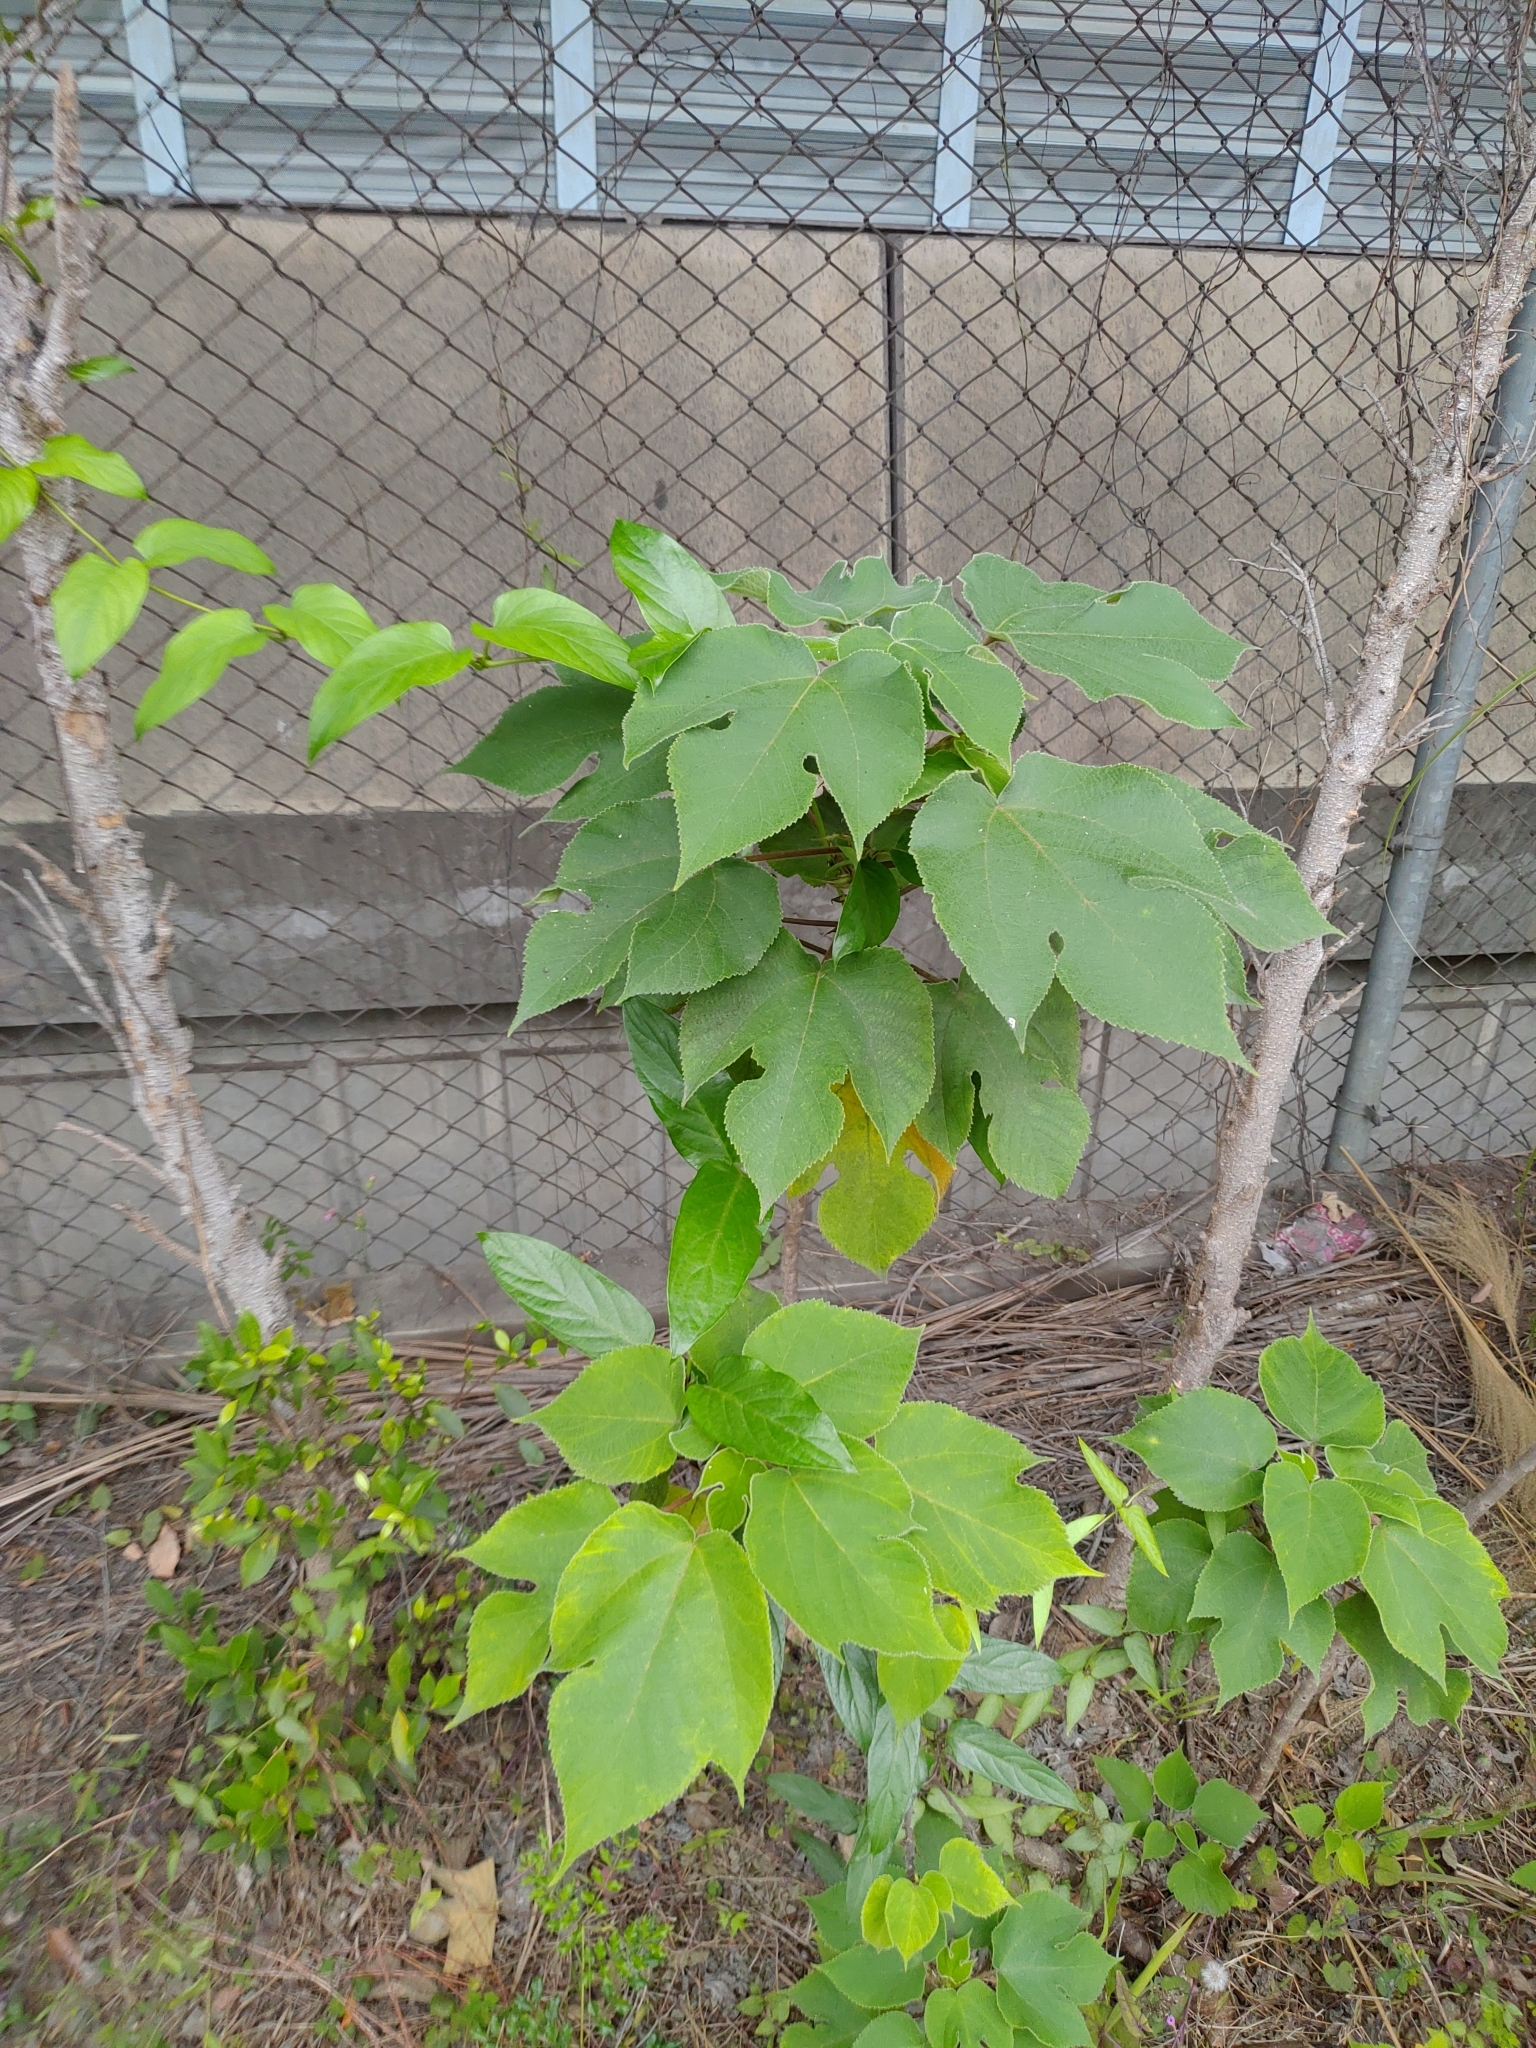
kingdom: Plantae
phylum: Tracheophyta
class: Magnoliopsida
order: Rosales
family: Moraceae
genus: Broussonetia
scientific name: Broussonetia papyrifera
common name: Paper mulberry
